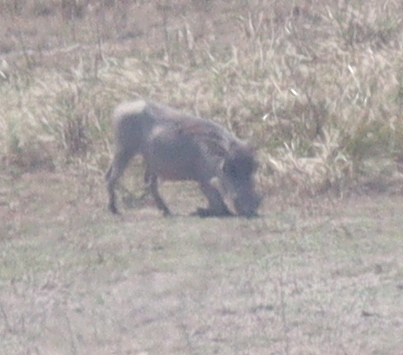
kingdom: Animalia
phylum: Chordata
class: Mammalia
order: Artiodactyla
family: Suidae
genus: Phacochoerus
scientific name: Phacochoerus africanus
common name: Common warthog
